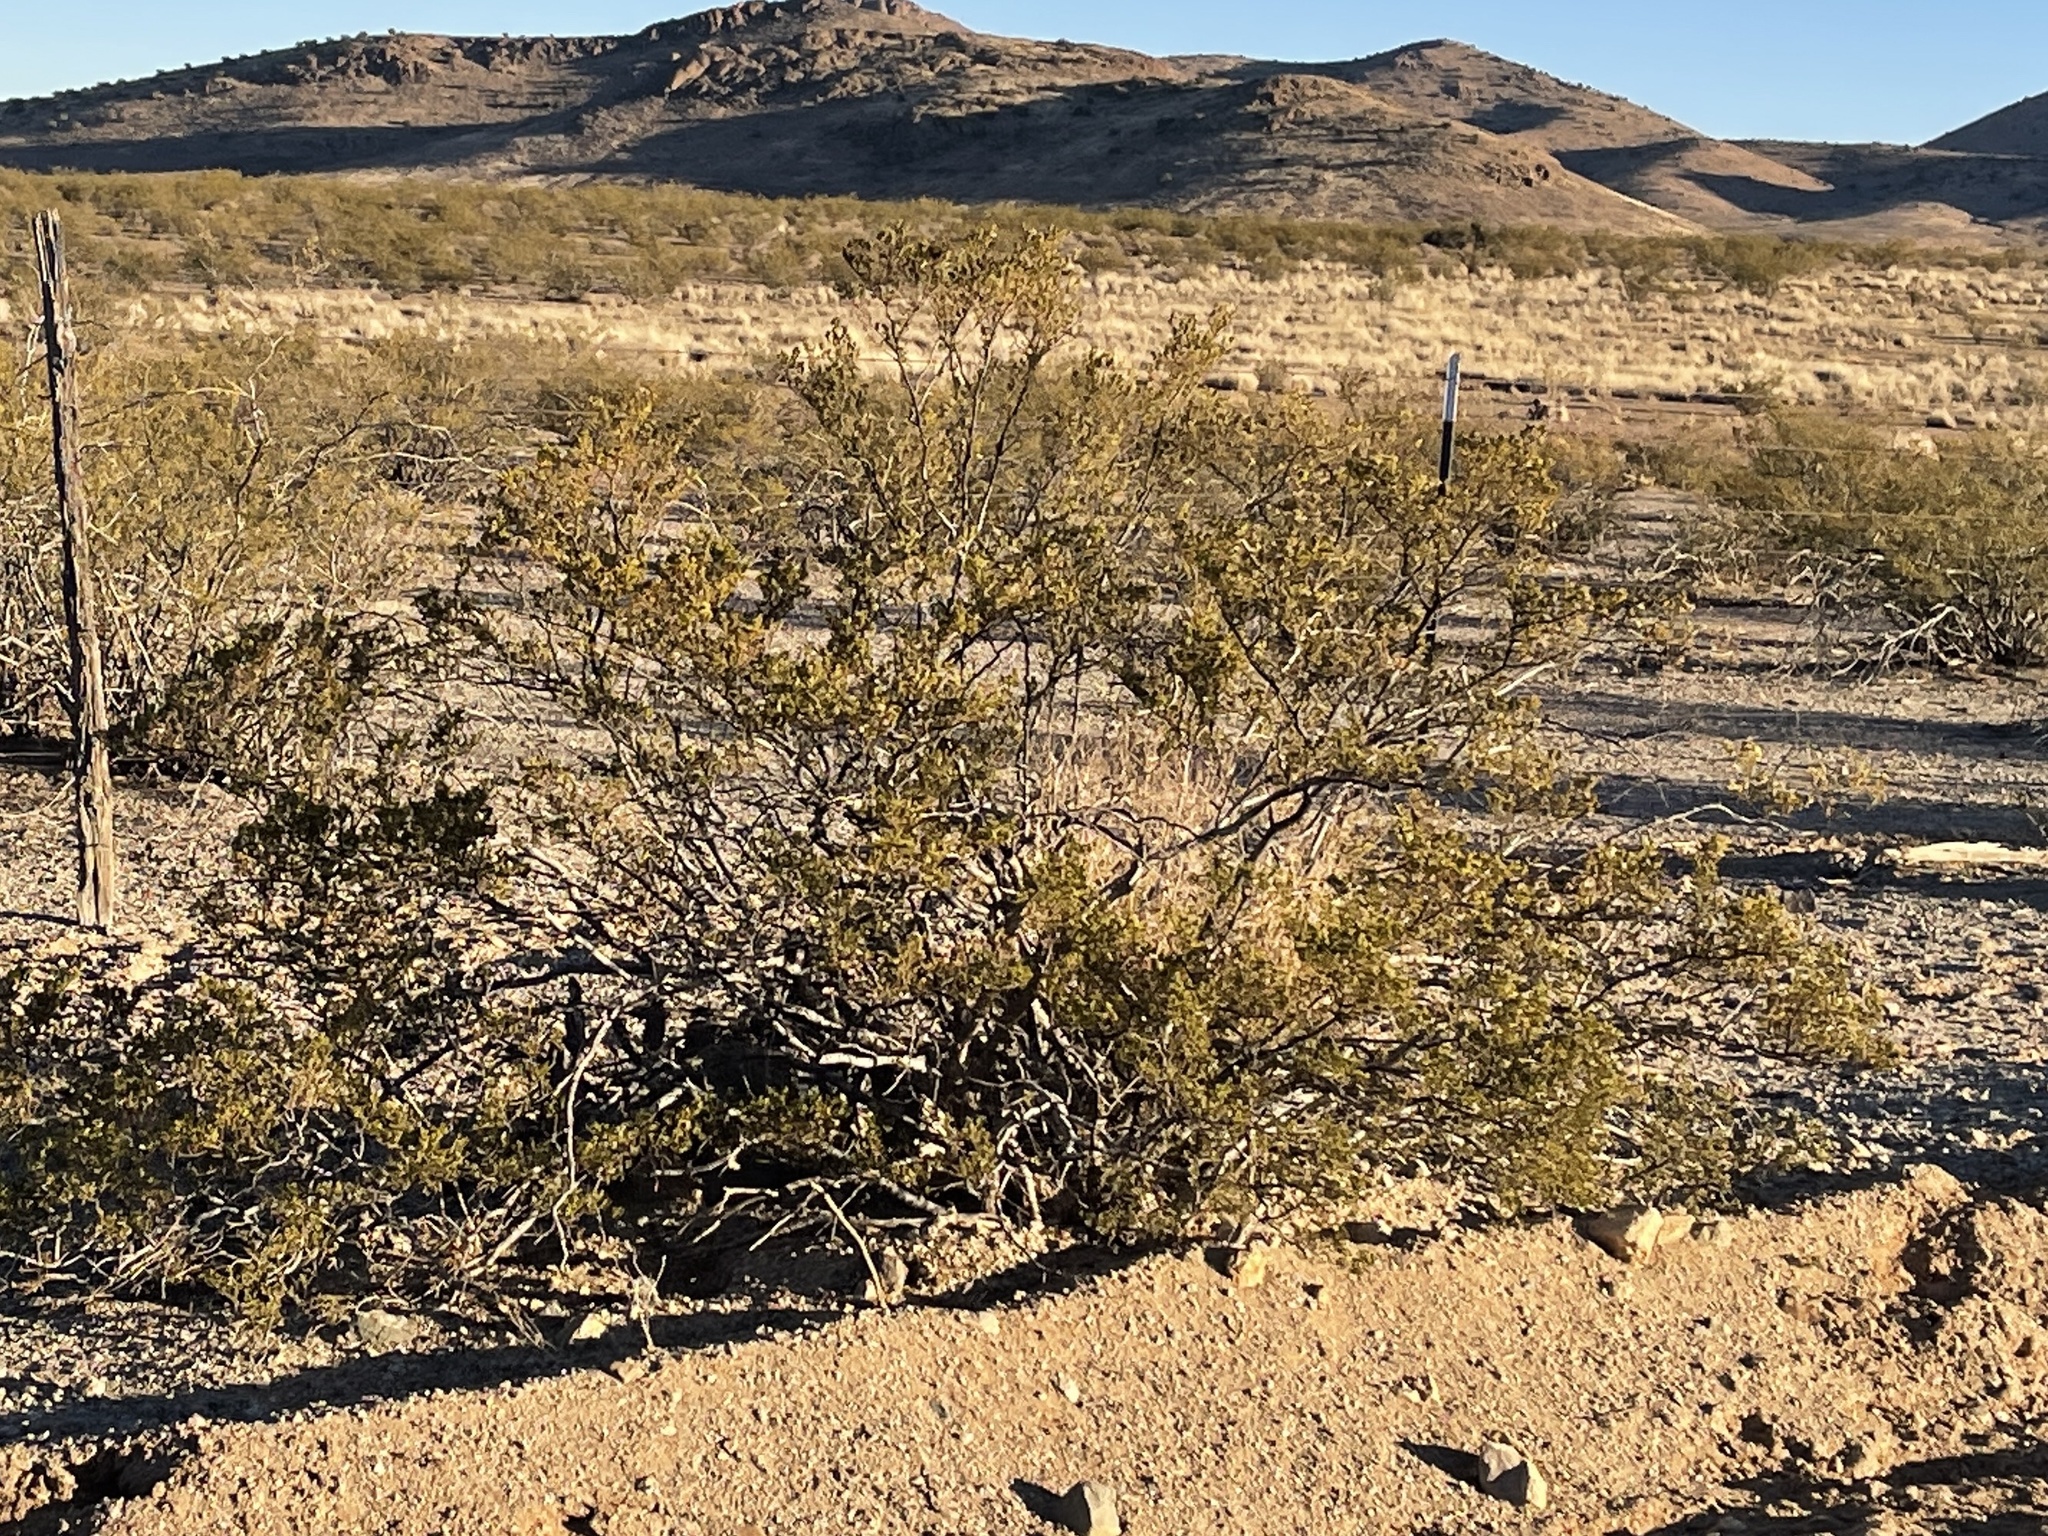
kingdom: Plantae
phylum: Tracheophyta
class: Magnoliopsida
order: Zygophyllales
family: Zygophyllaceae
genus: Larrea
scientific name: Larrea tridentata
